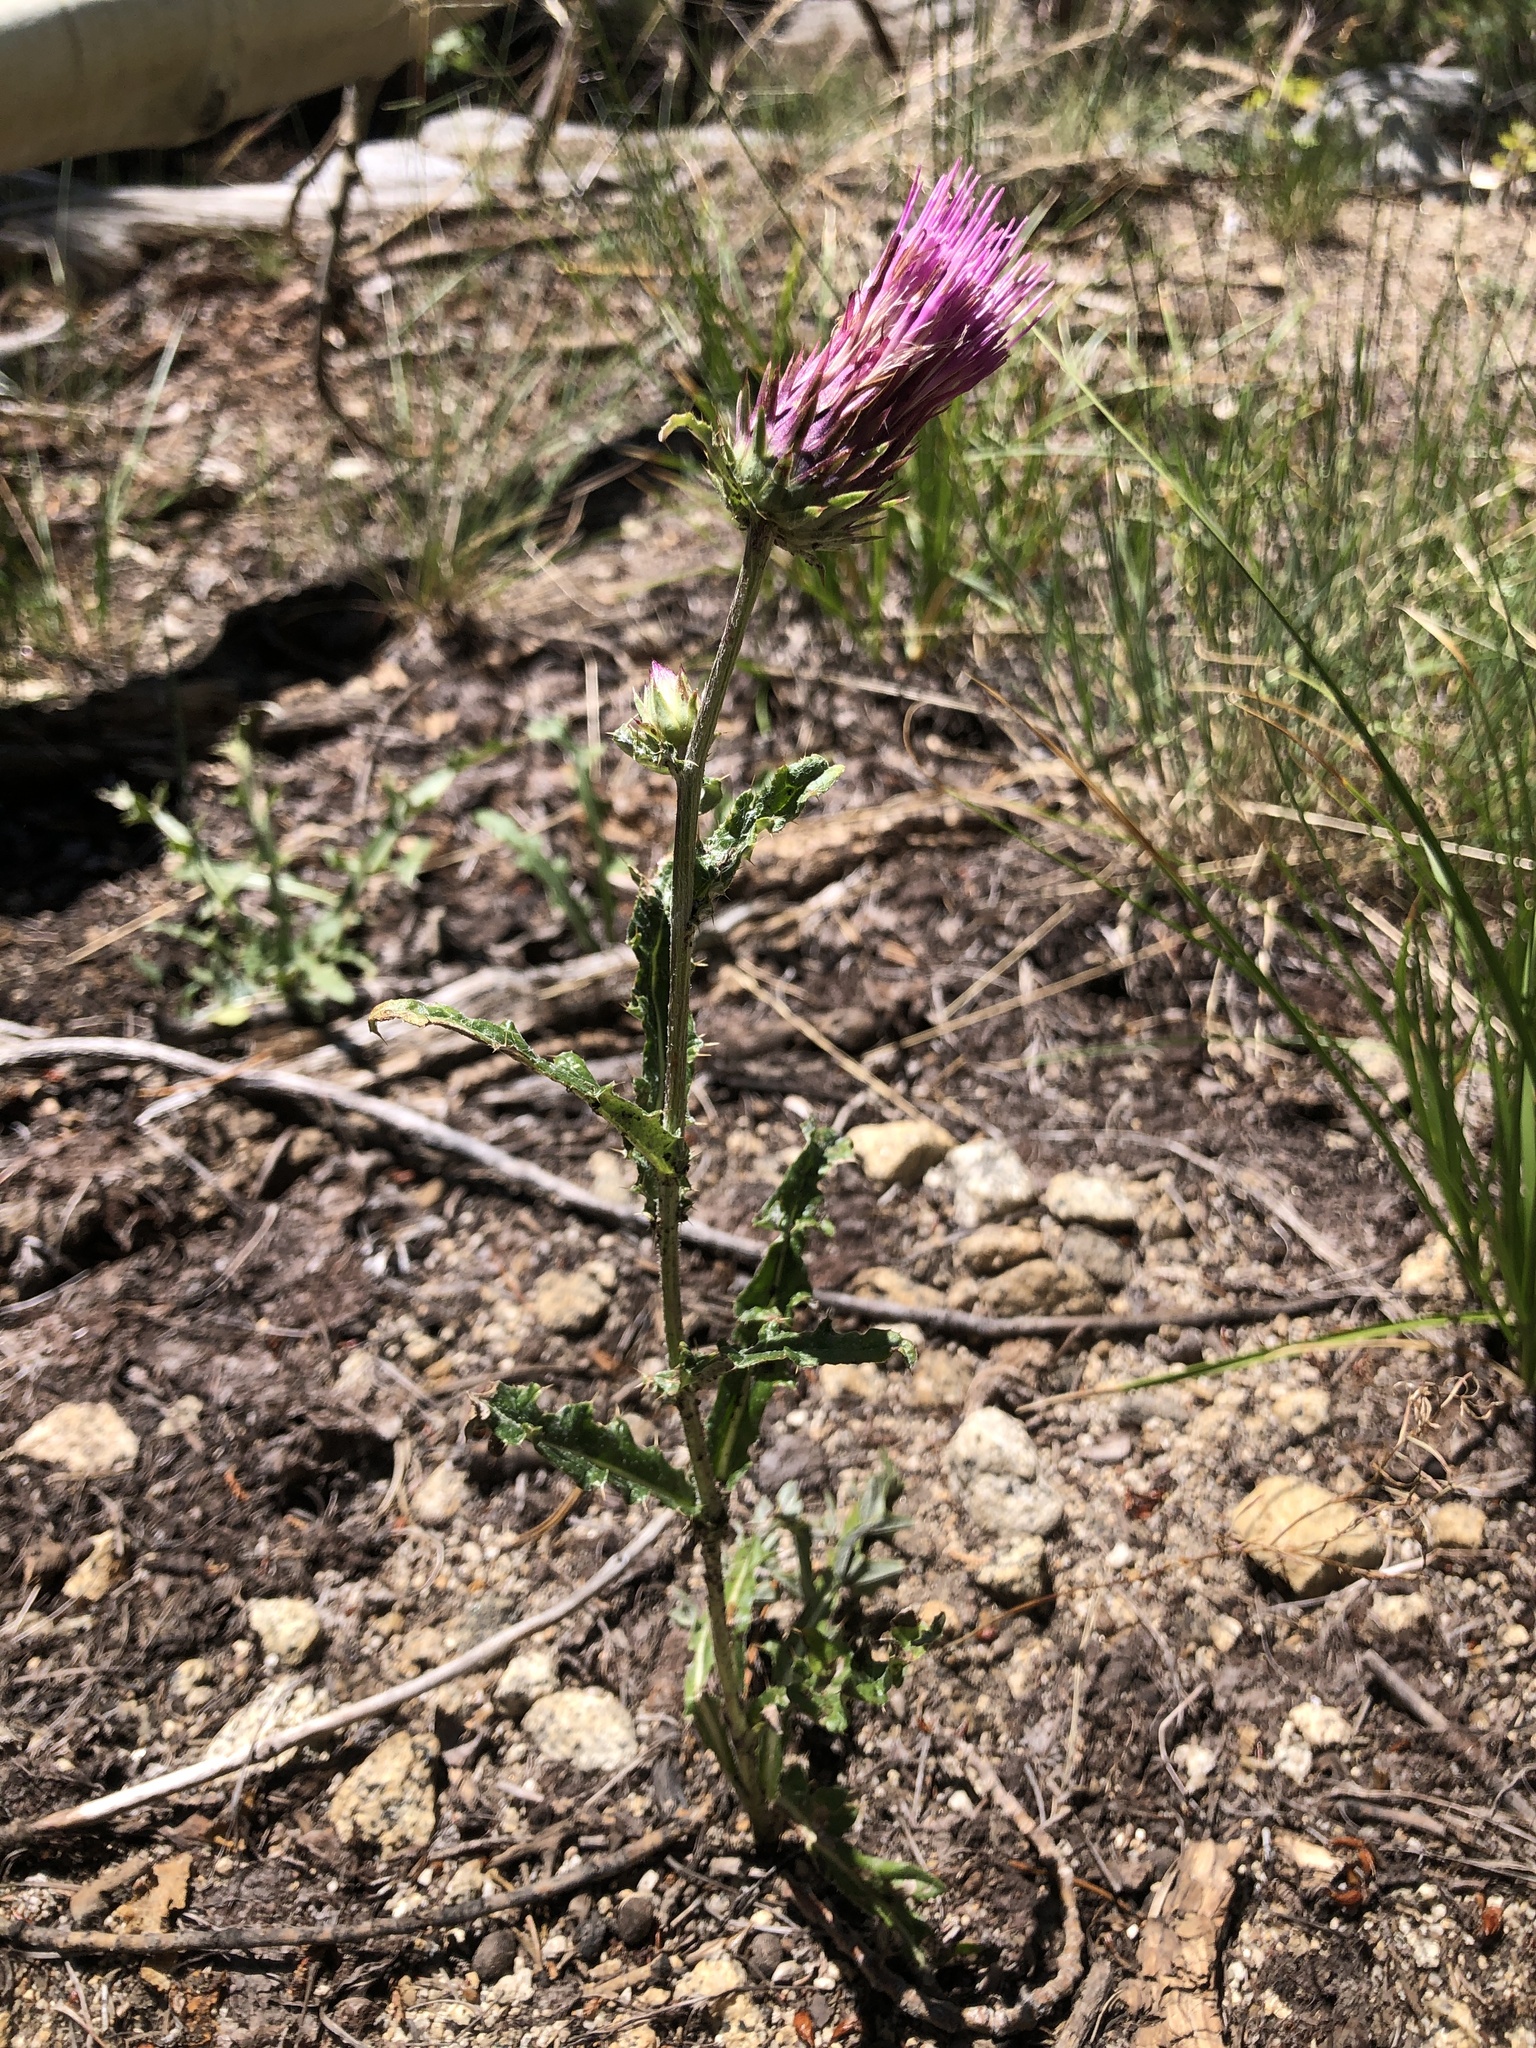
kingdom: Plantae
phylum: Tracheophyta
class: Magnoliopsida
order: Asterales
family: Asteraceae
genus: Cirsium
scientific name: Cirsium andersonii
